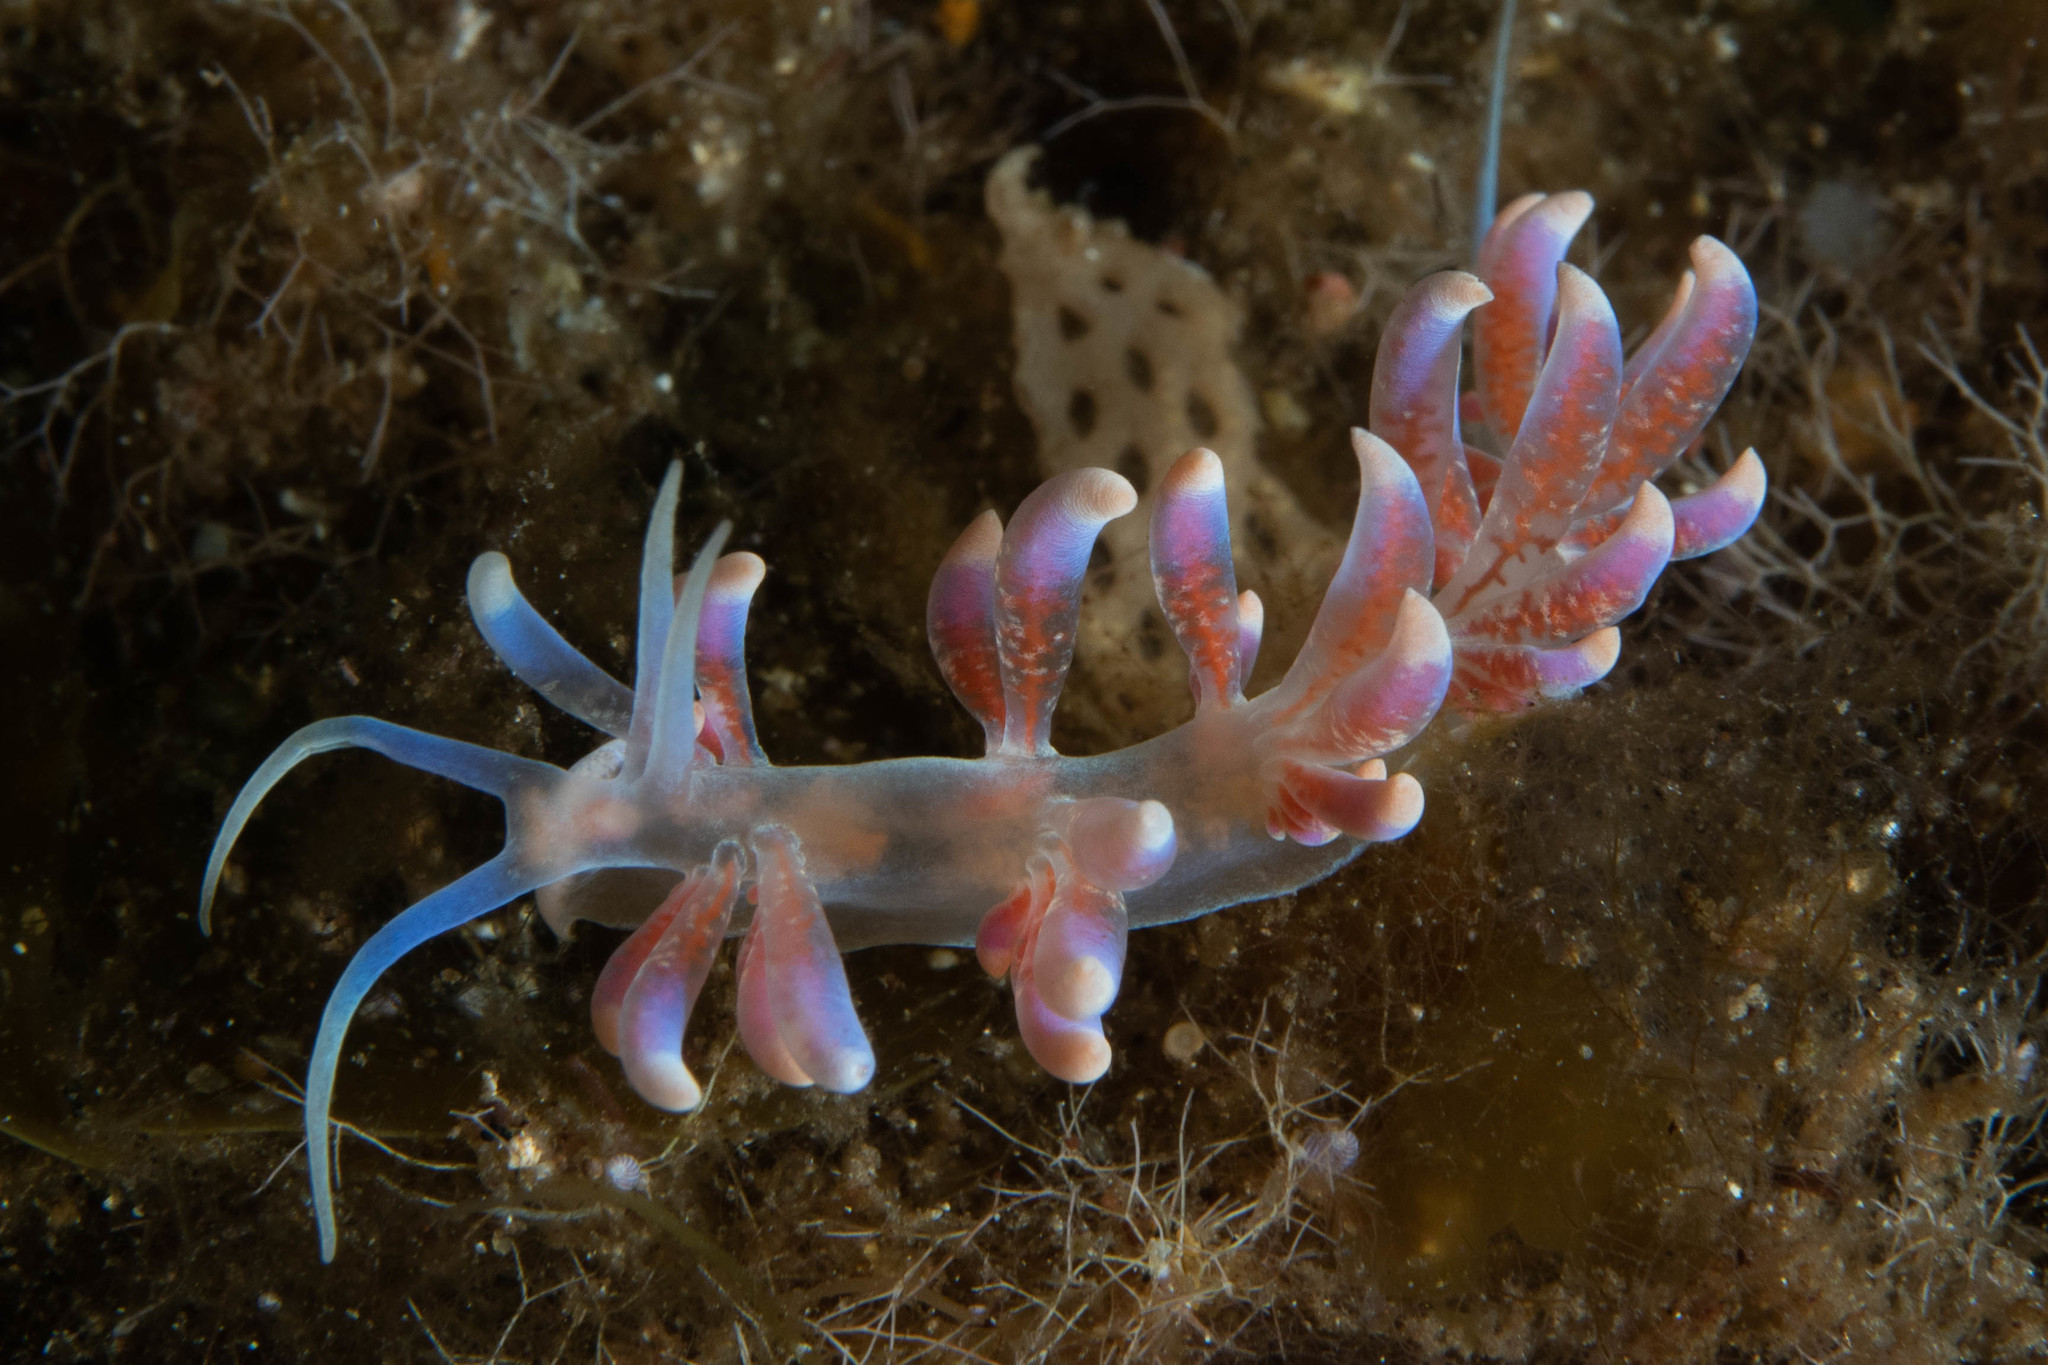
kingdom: Animalia
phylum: Mollusca
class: Gastropoda
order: Nudibranchia
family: Myrrhinidae
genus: Phyllodesmium
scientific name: Phyllodesmium poindimiei
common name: Sea slug
